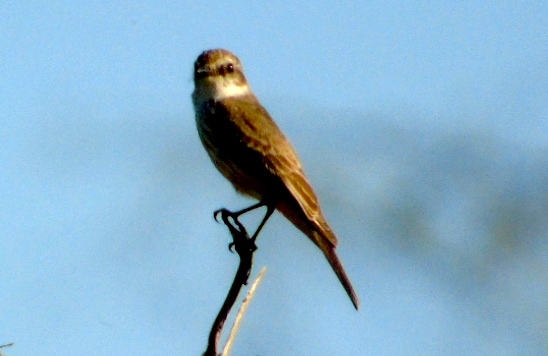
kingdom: Animalia
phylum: Chordata
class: Aves
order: Passeriformes
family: Tyrannidae
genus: Pyrocephalus
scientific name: Pyrocephalus rubinus
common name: Vermilion flycatcher
